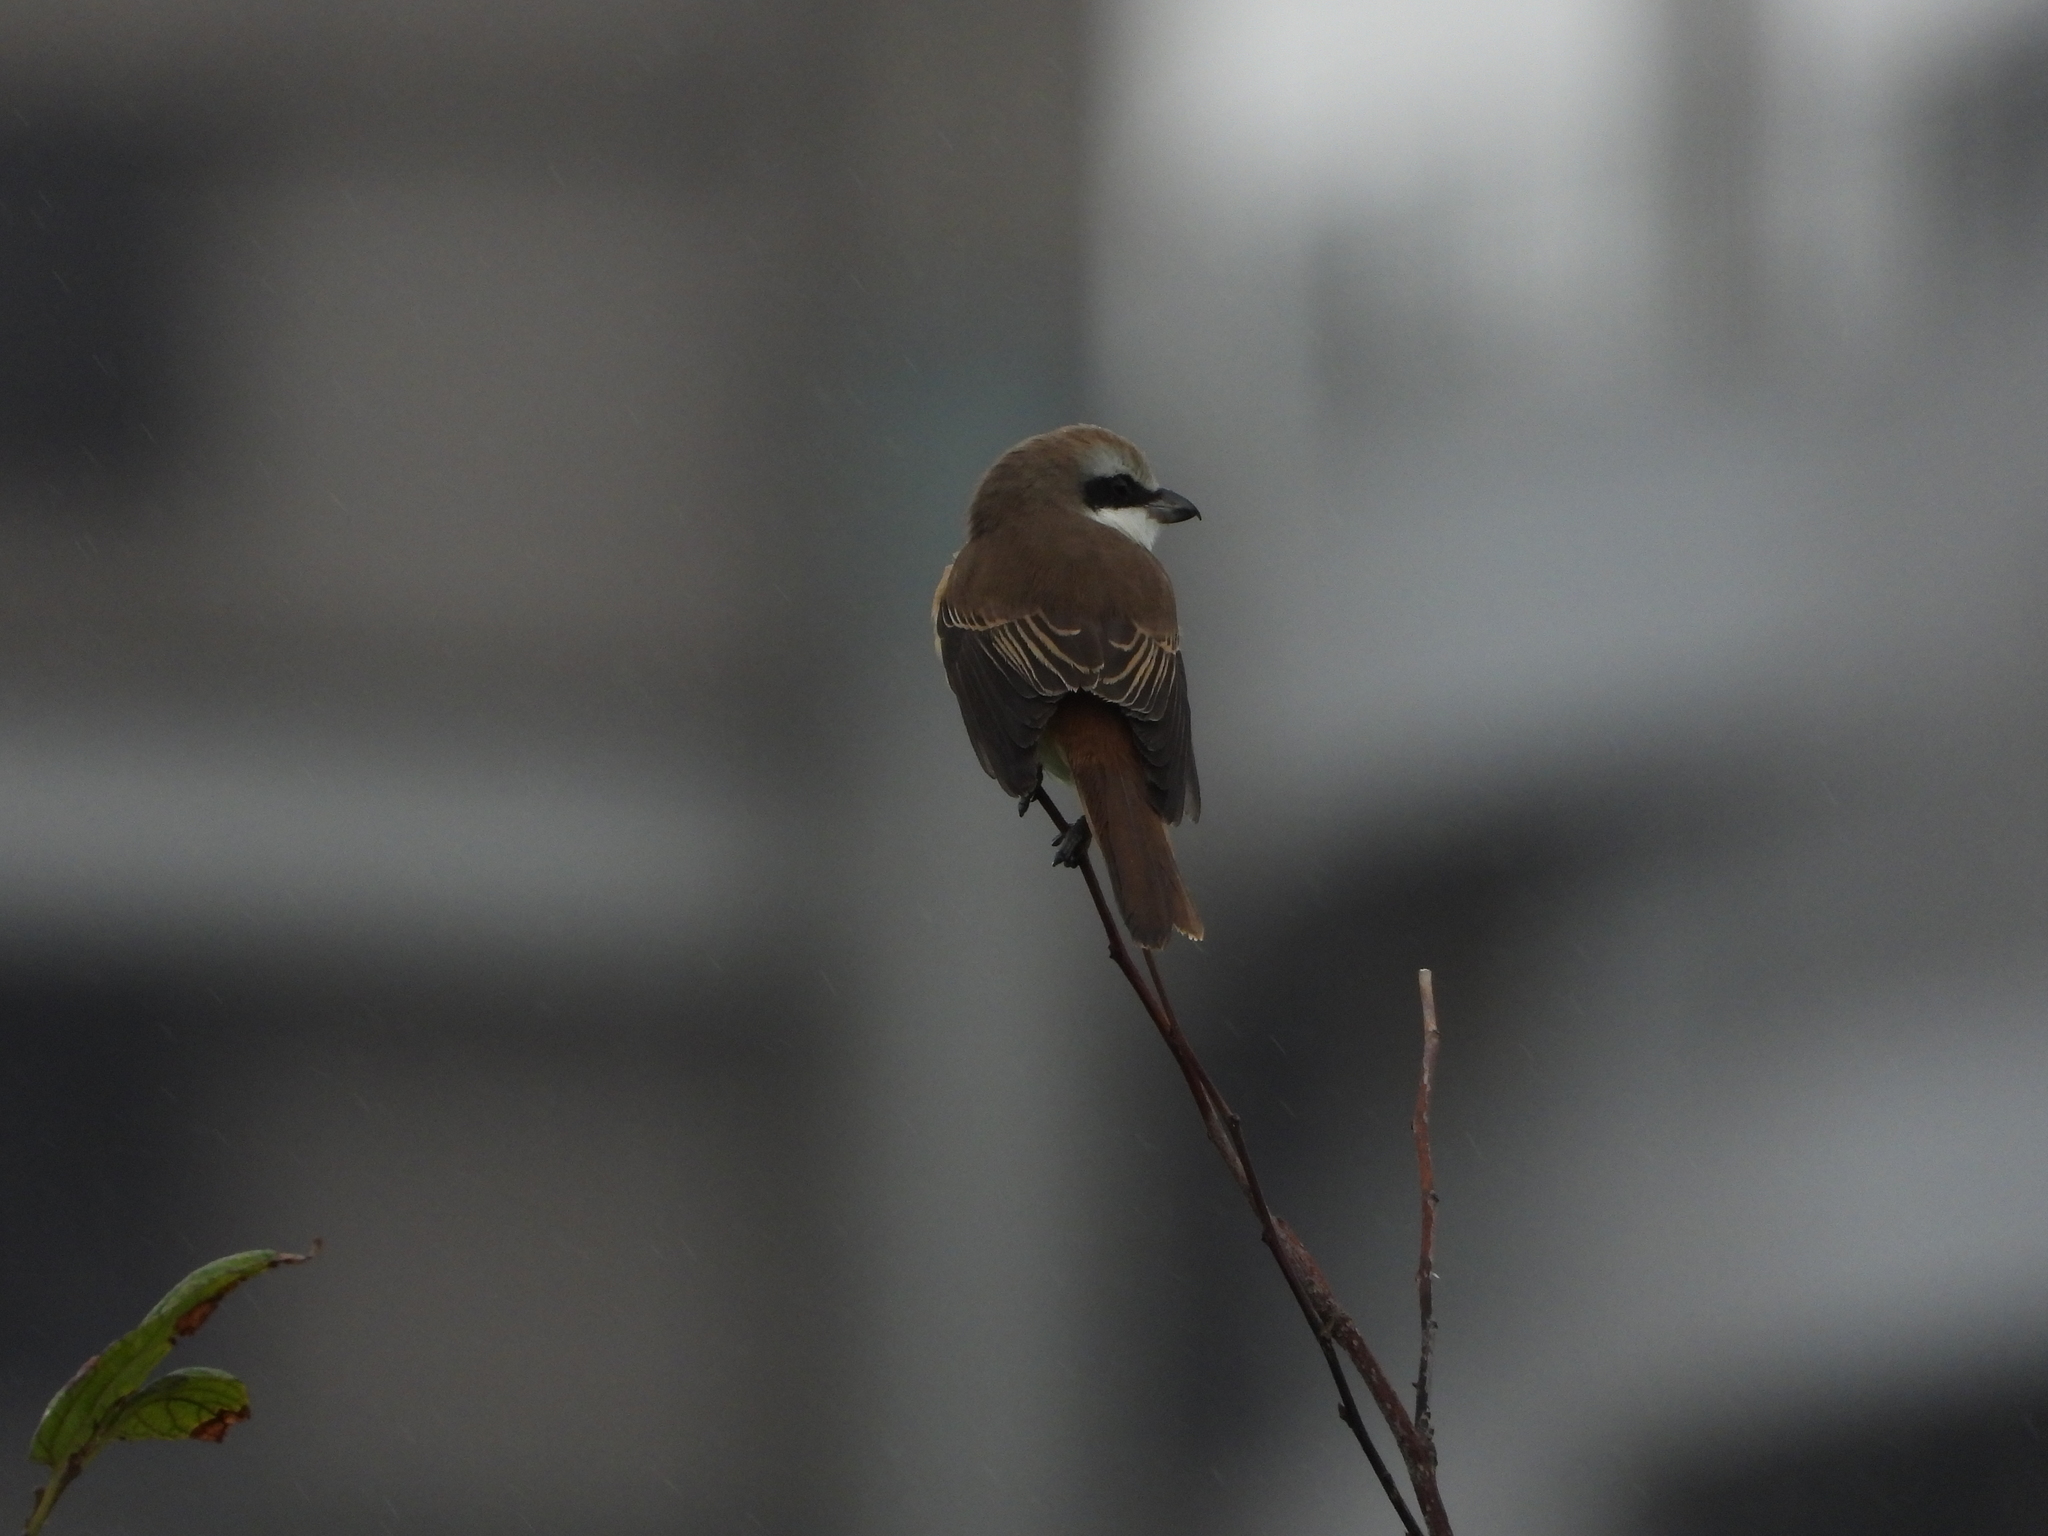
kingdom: Animalia
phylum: Chordata
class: Aves
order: Passeriformes
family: Laniidae
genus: Lanius
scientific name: Lanius cristatus
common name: Brown shrike
